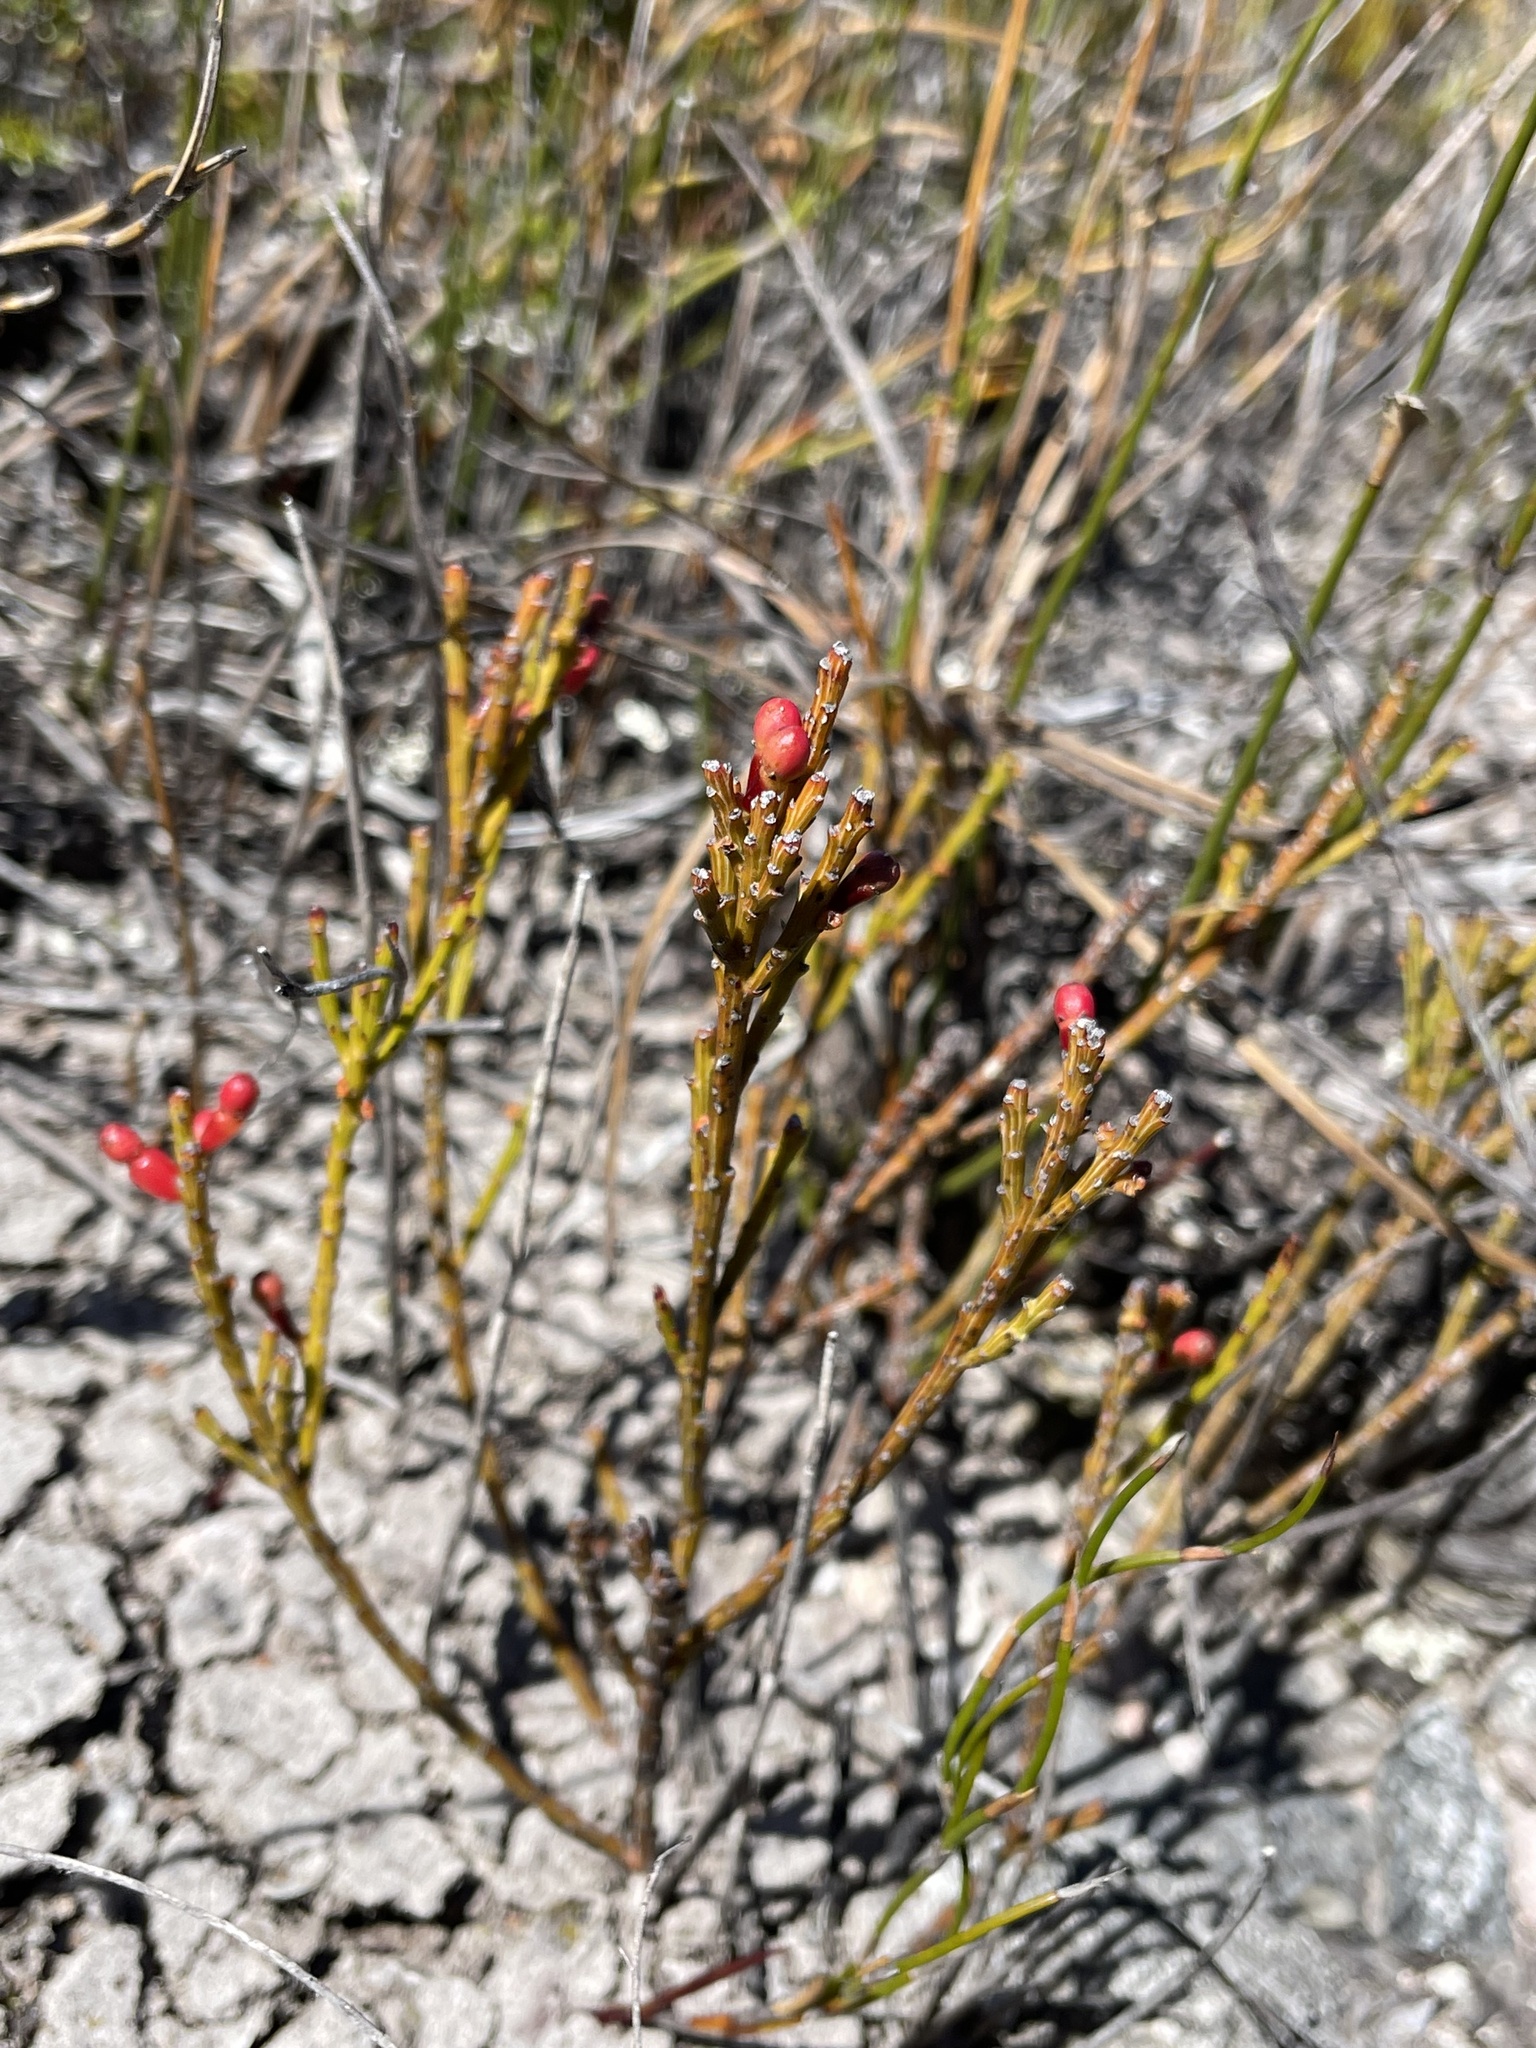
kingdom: Plantae
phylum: Tracheophyta
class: Magnoliopsida
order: Santalales
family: Santalaceae
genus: Exocarpos
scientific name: Exocarpos humifusus
